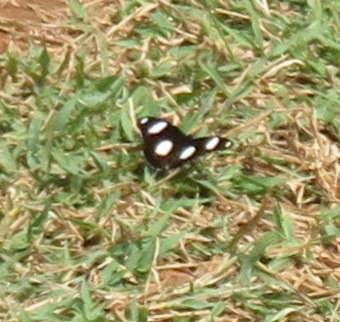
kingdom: Animalia
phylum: Arthropoda
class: Insecta
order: Lepidoptera
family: Nymphalidae
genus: Hypolimnas
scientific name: Hypolimnas misippus
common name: False plain tiger
